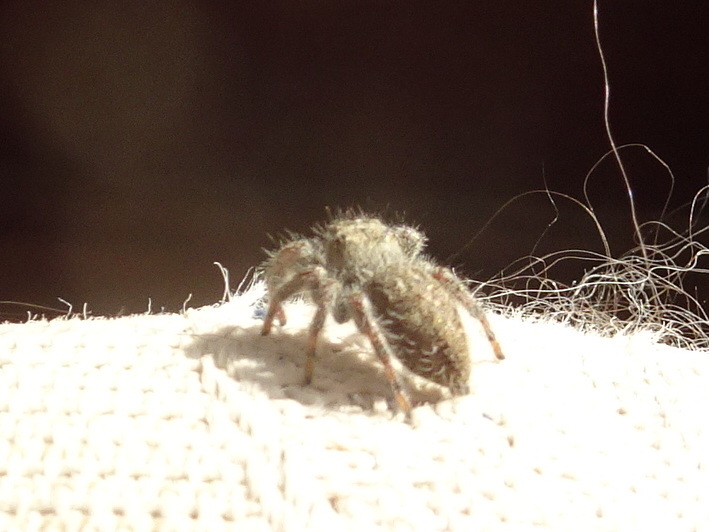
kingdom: Animalia
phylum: Arthropoda
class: Arachnida
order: Araneae
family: Salticidae
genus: Phidippus
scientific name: Phidippus princeps
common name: Grayish jumping spider
